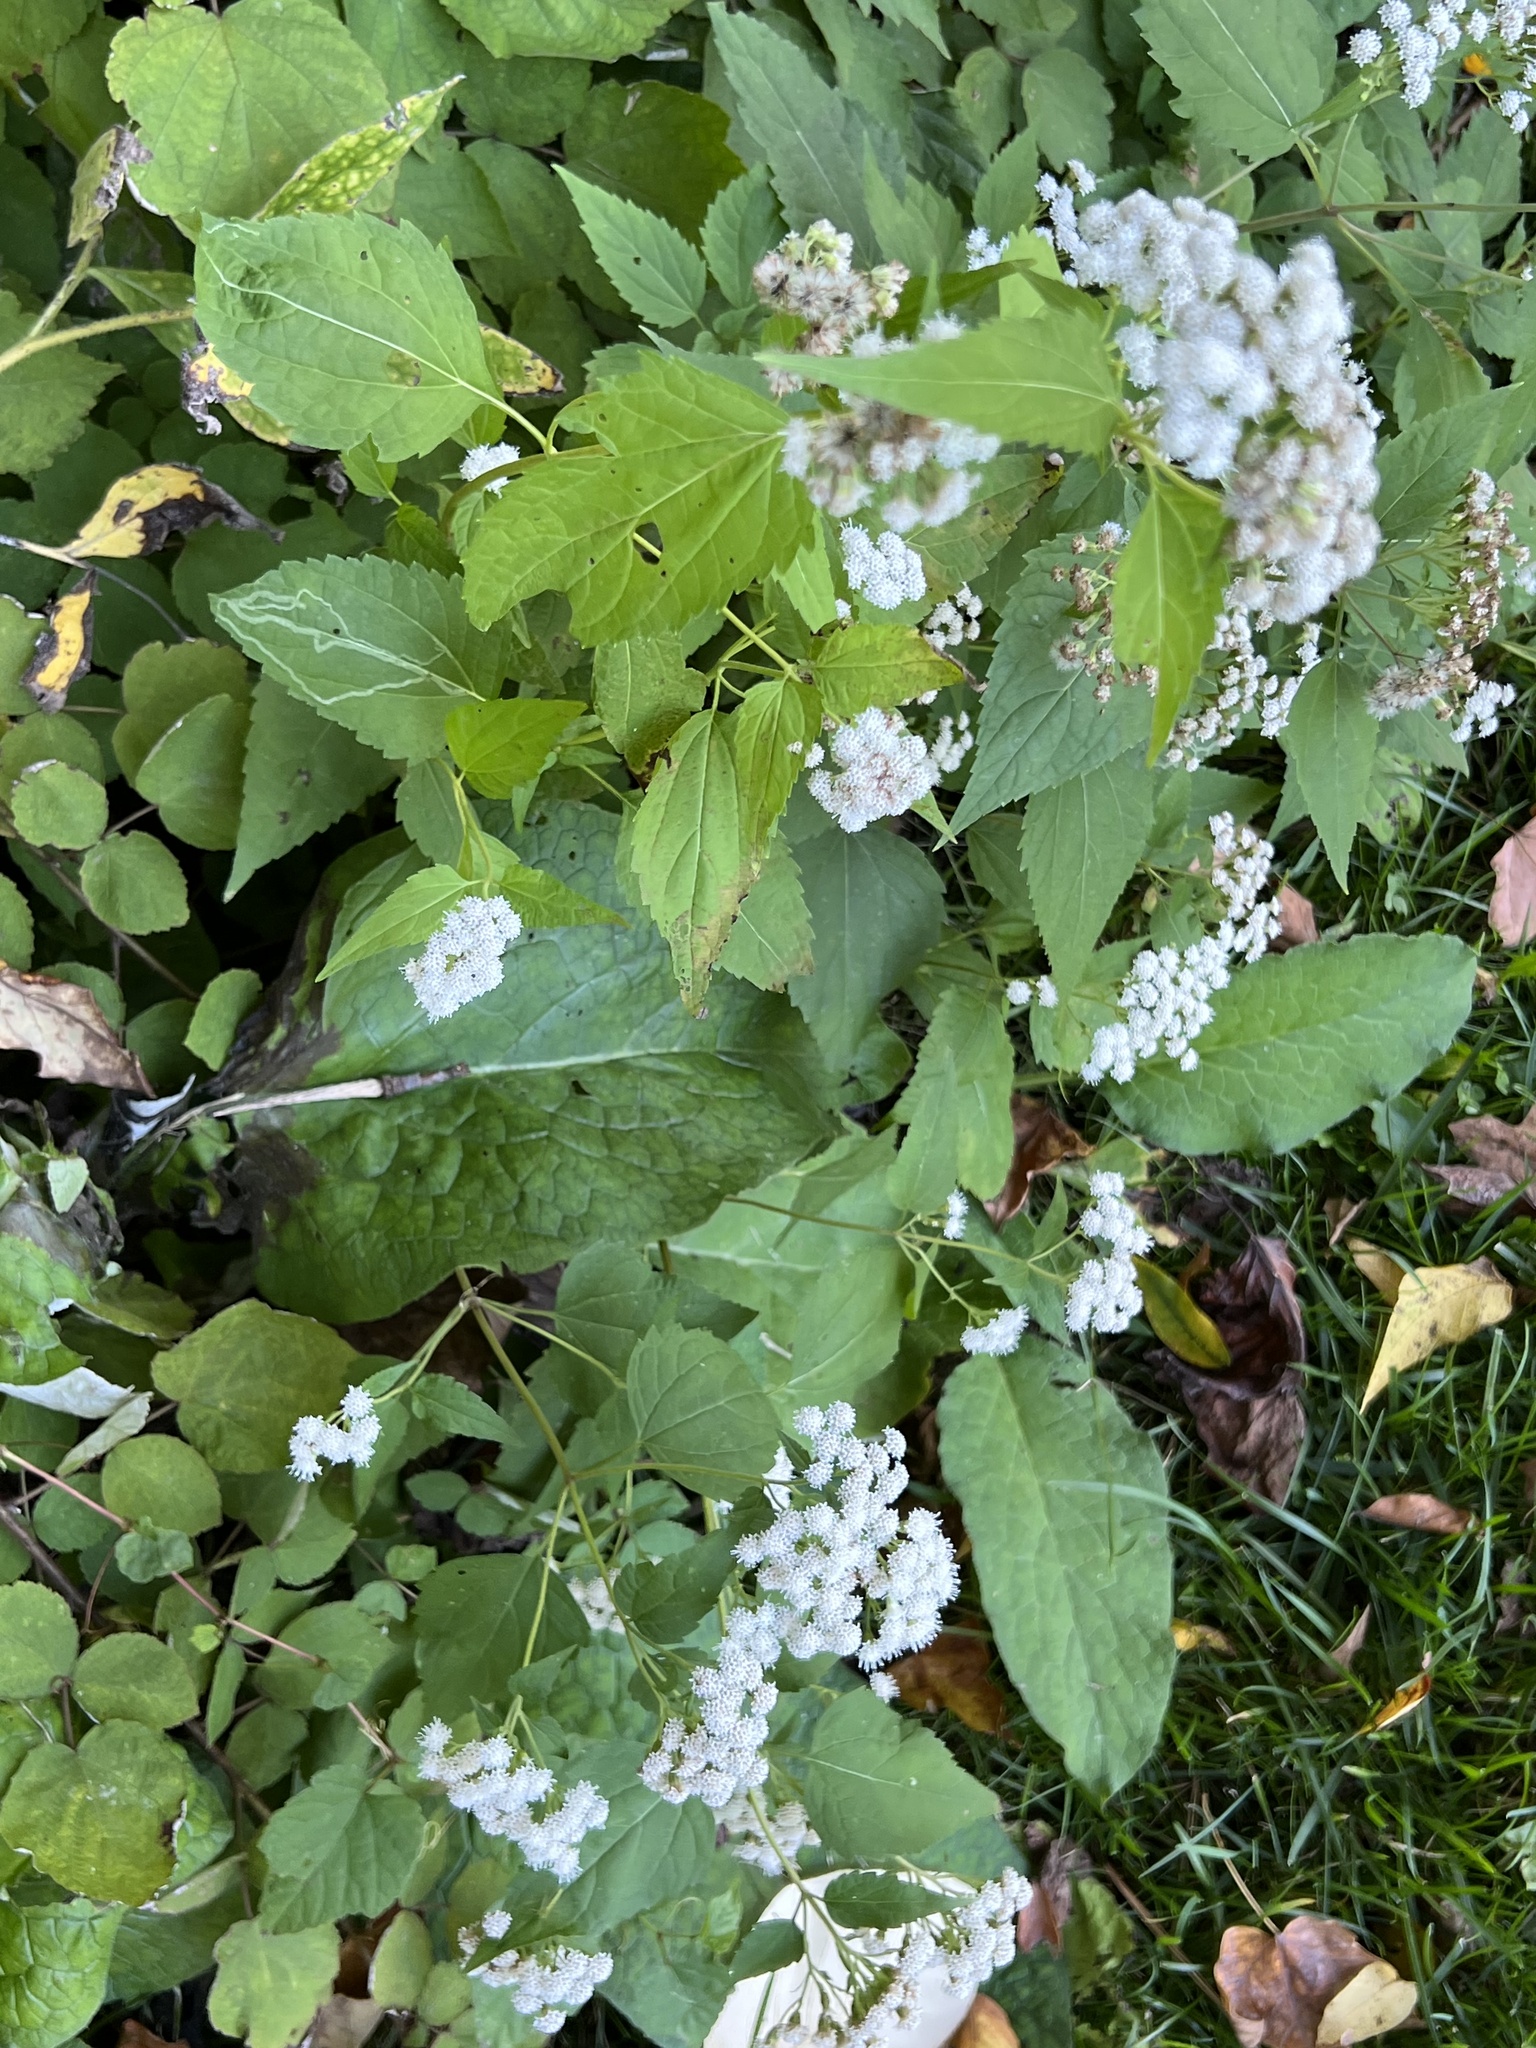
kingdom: Plantae
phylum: Tracheophyta
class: Magnoliopsida
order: Asterales
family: Asteraceae
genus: Ageratina
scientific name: Ageratina altissima
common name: White snakeroot
